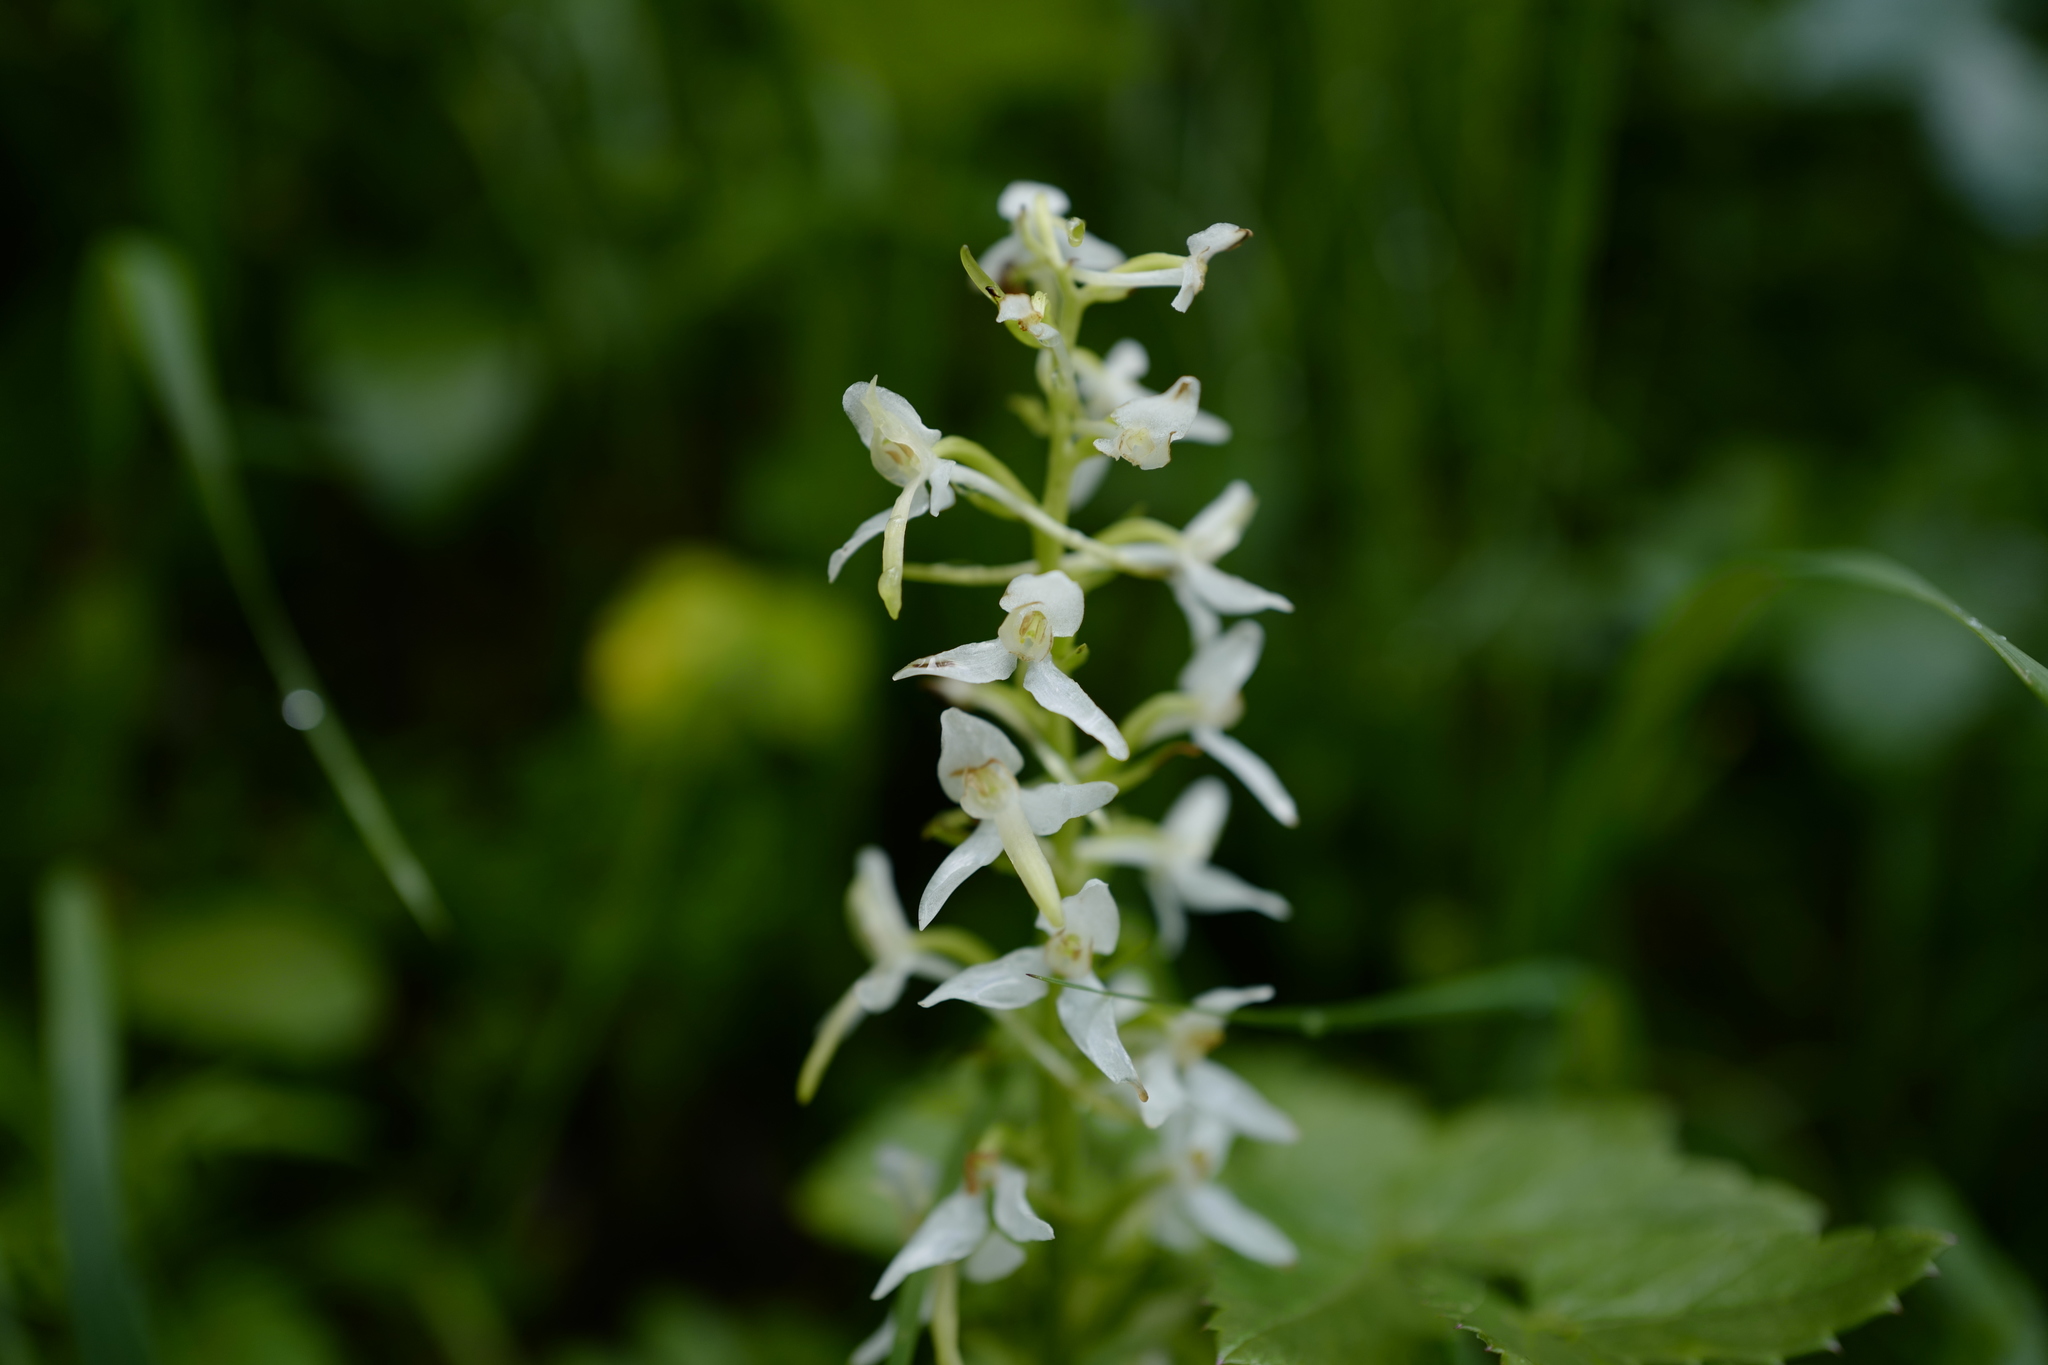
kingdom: Plantae
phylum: Tracheophyta
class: Liliopsida
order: Asparagales
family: Orchidaceae
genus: Platanthera
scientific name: Platanthera bifolia
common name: Lesser butterfly-orchid
